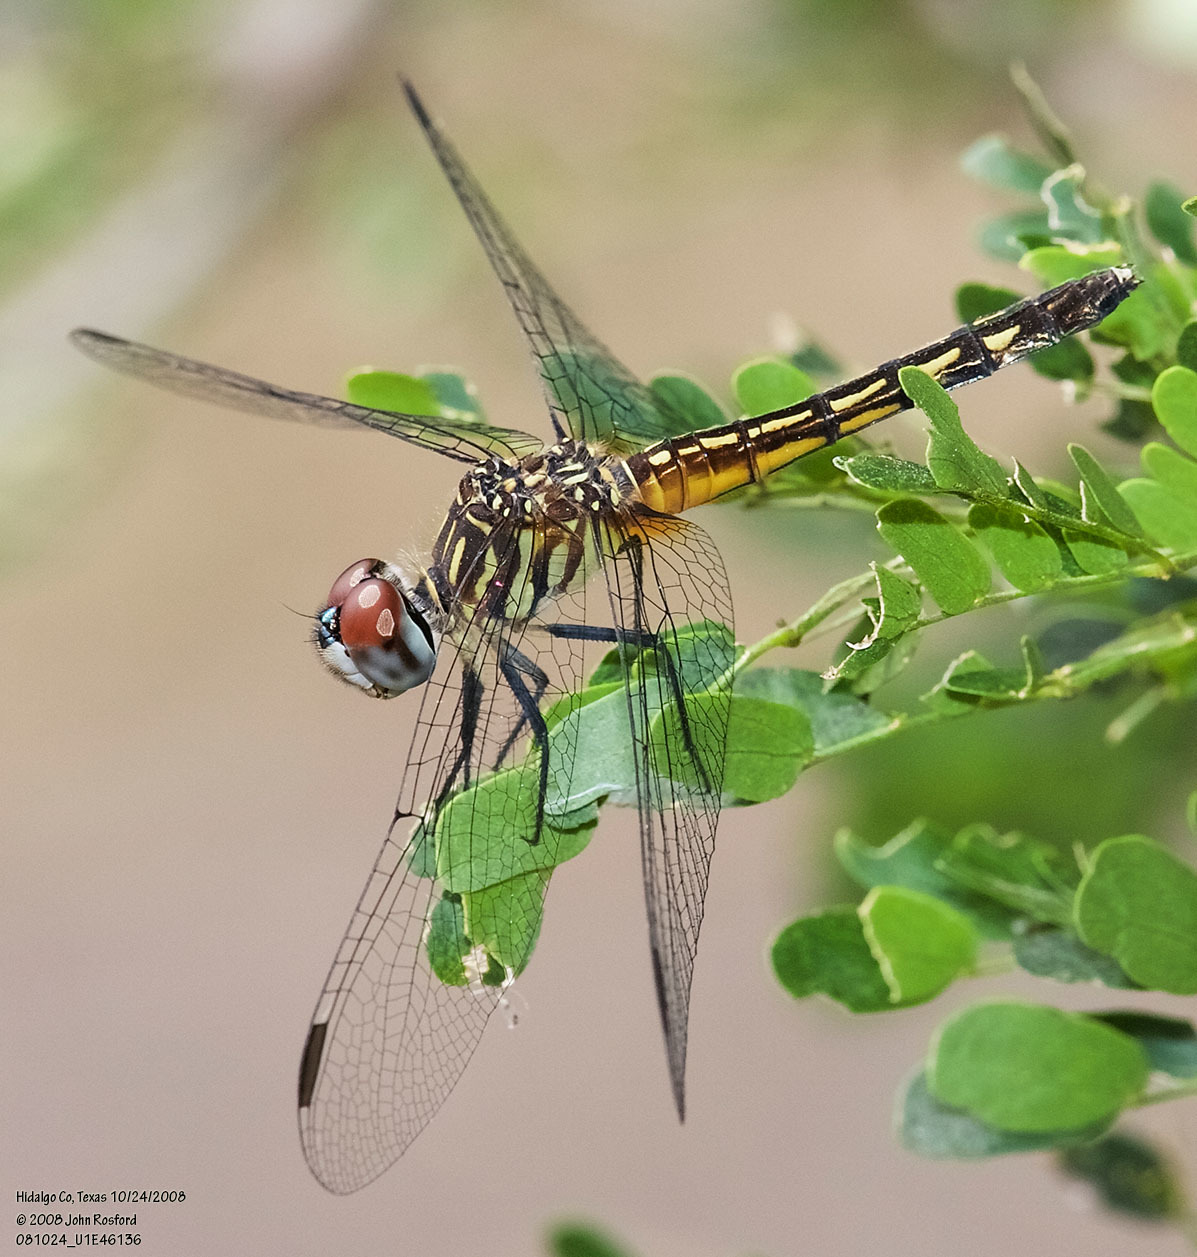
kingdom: Animalia
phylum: Arthropoda
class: Insecta
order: Odonata
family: Libellulidae
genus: Pachydiplax
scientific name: Pachydiplax longipennis
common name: Blue dasher
